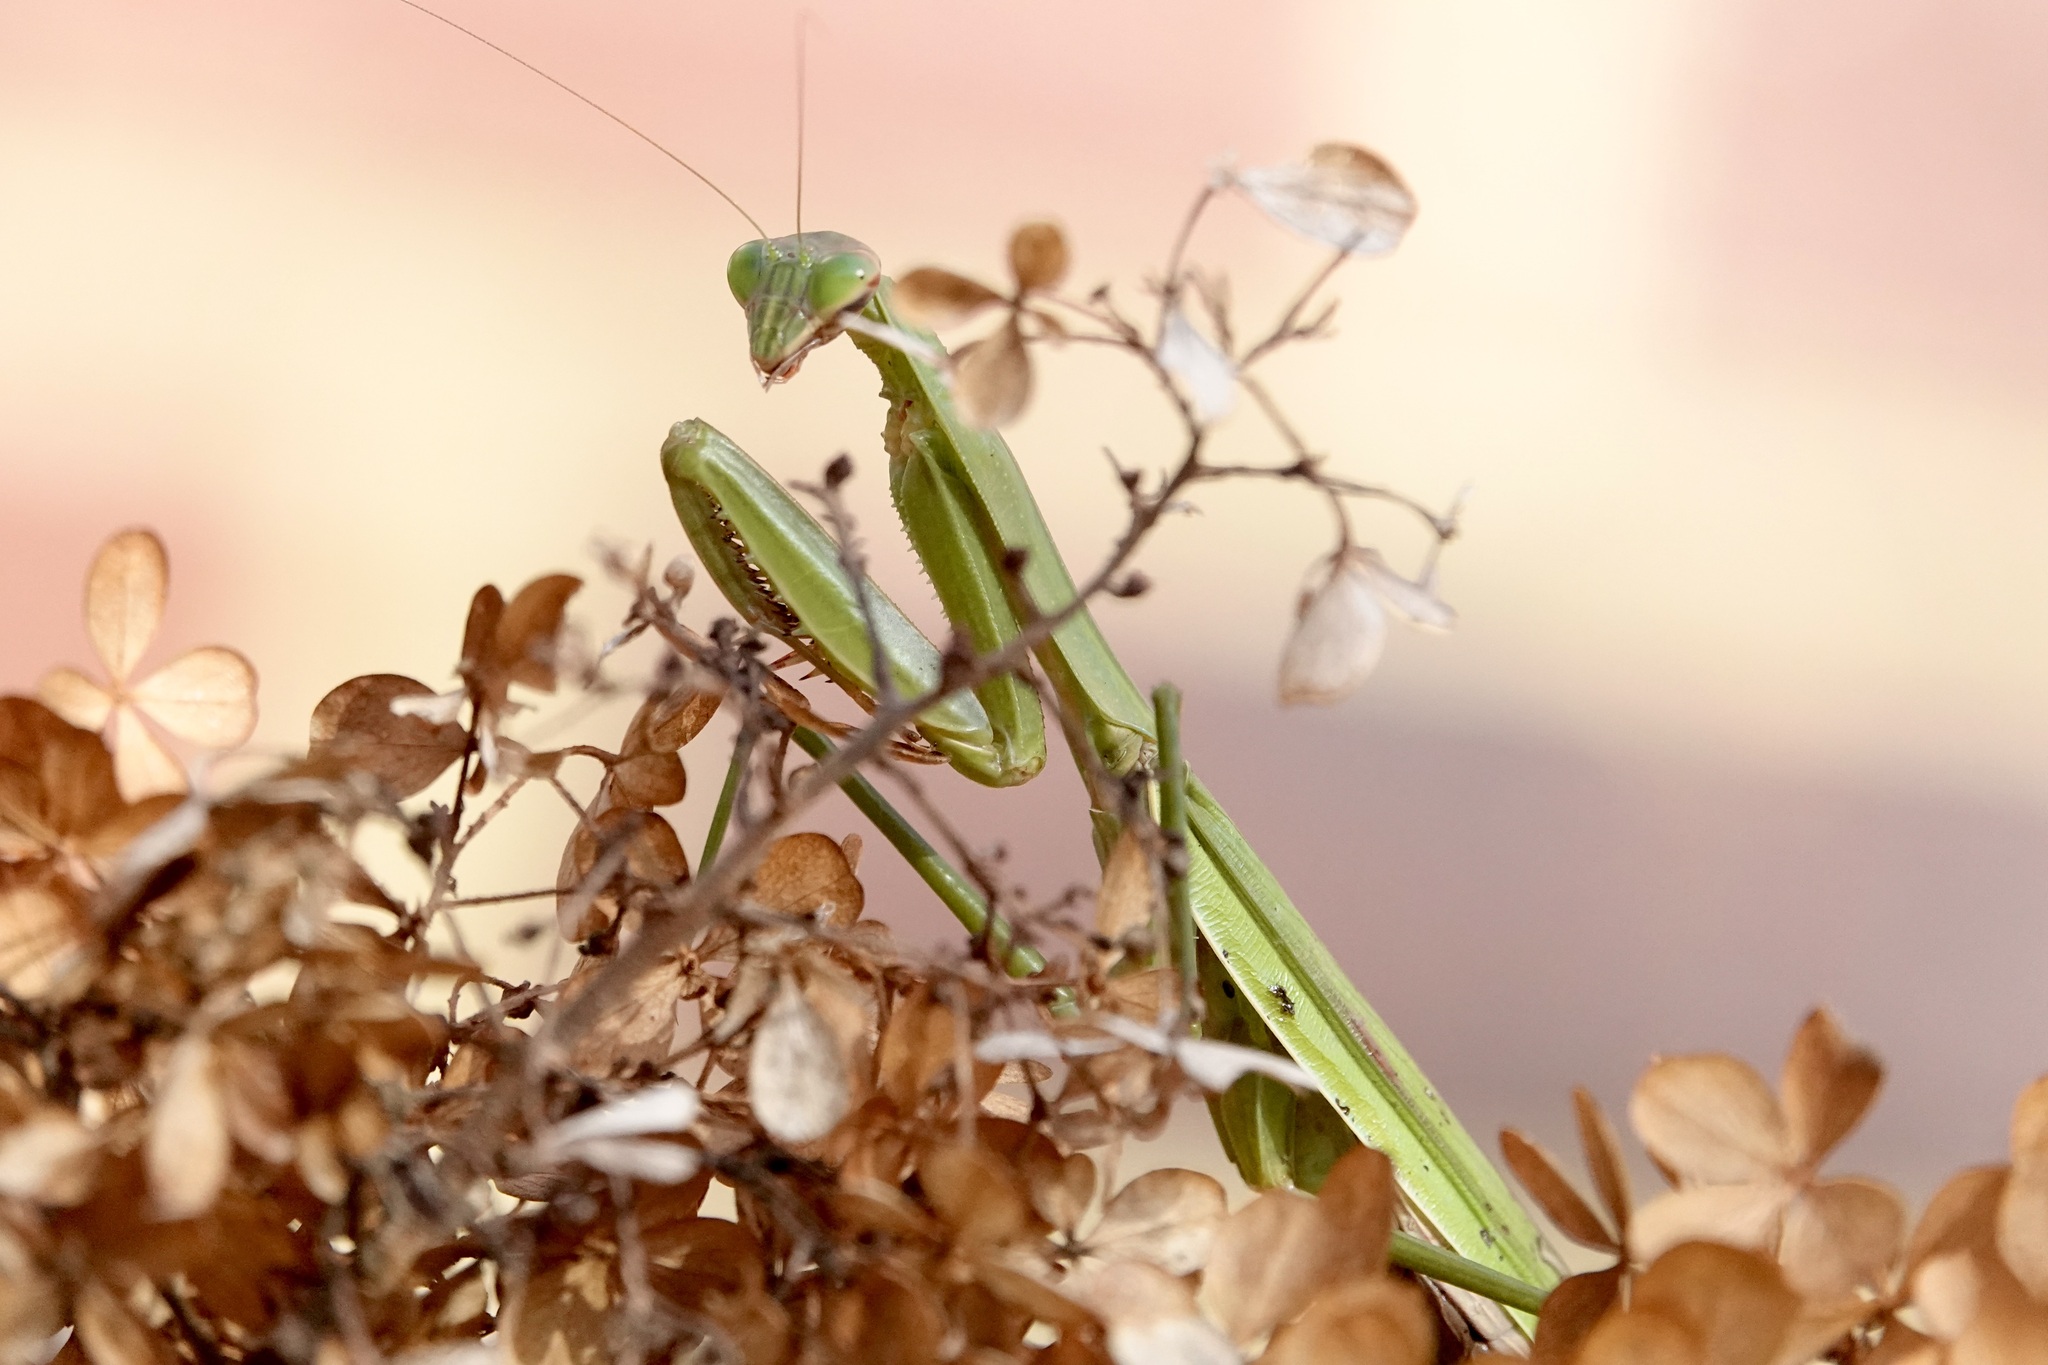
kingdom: Animalia
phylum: Arthropoda
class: Insecta
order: Mantodea
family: Mantidae
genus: Tenodera
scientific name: Tenodera sinensis
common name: Chinese mantis
